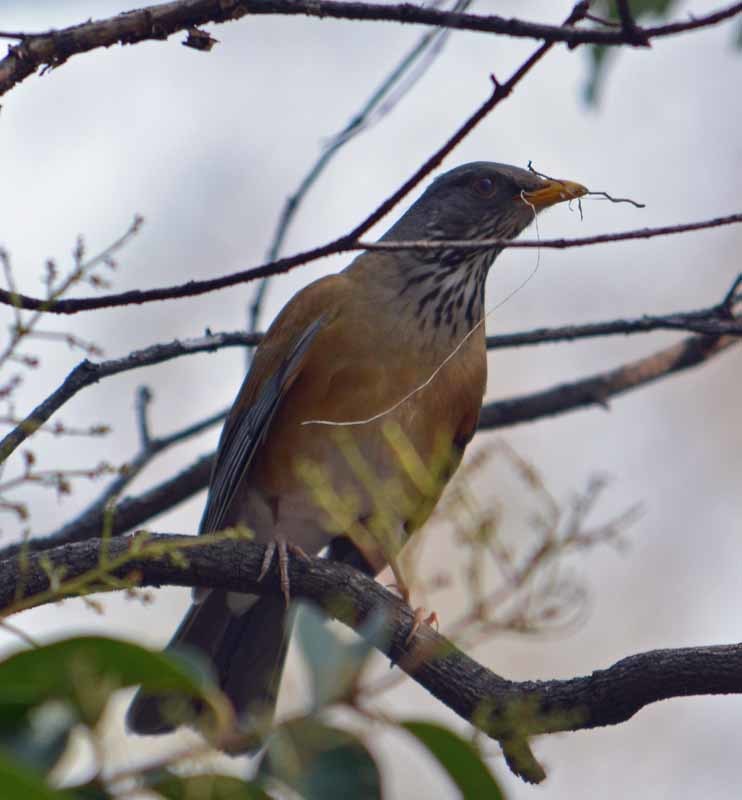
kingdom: Animalia
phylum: Chordata
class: Aves
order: Passeriformes
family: Turdidae
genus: Turdus
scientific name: Turdus rufopalliatus
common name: Rufous-backed robin
